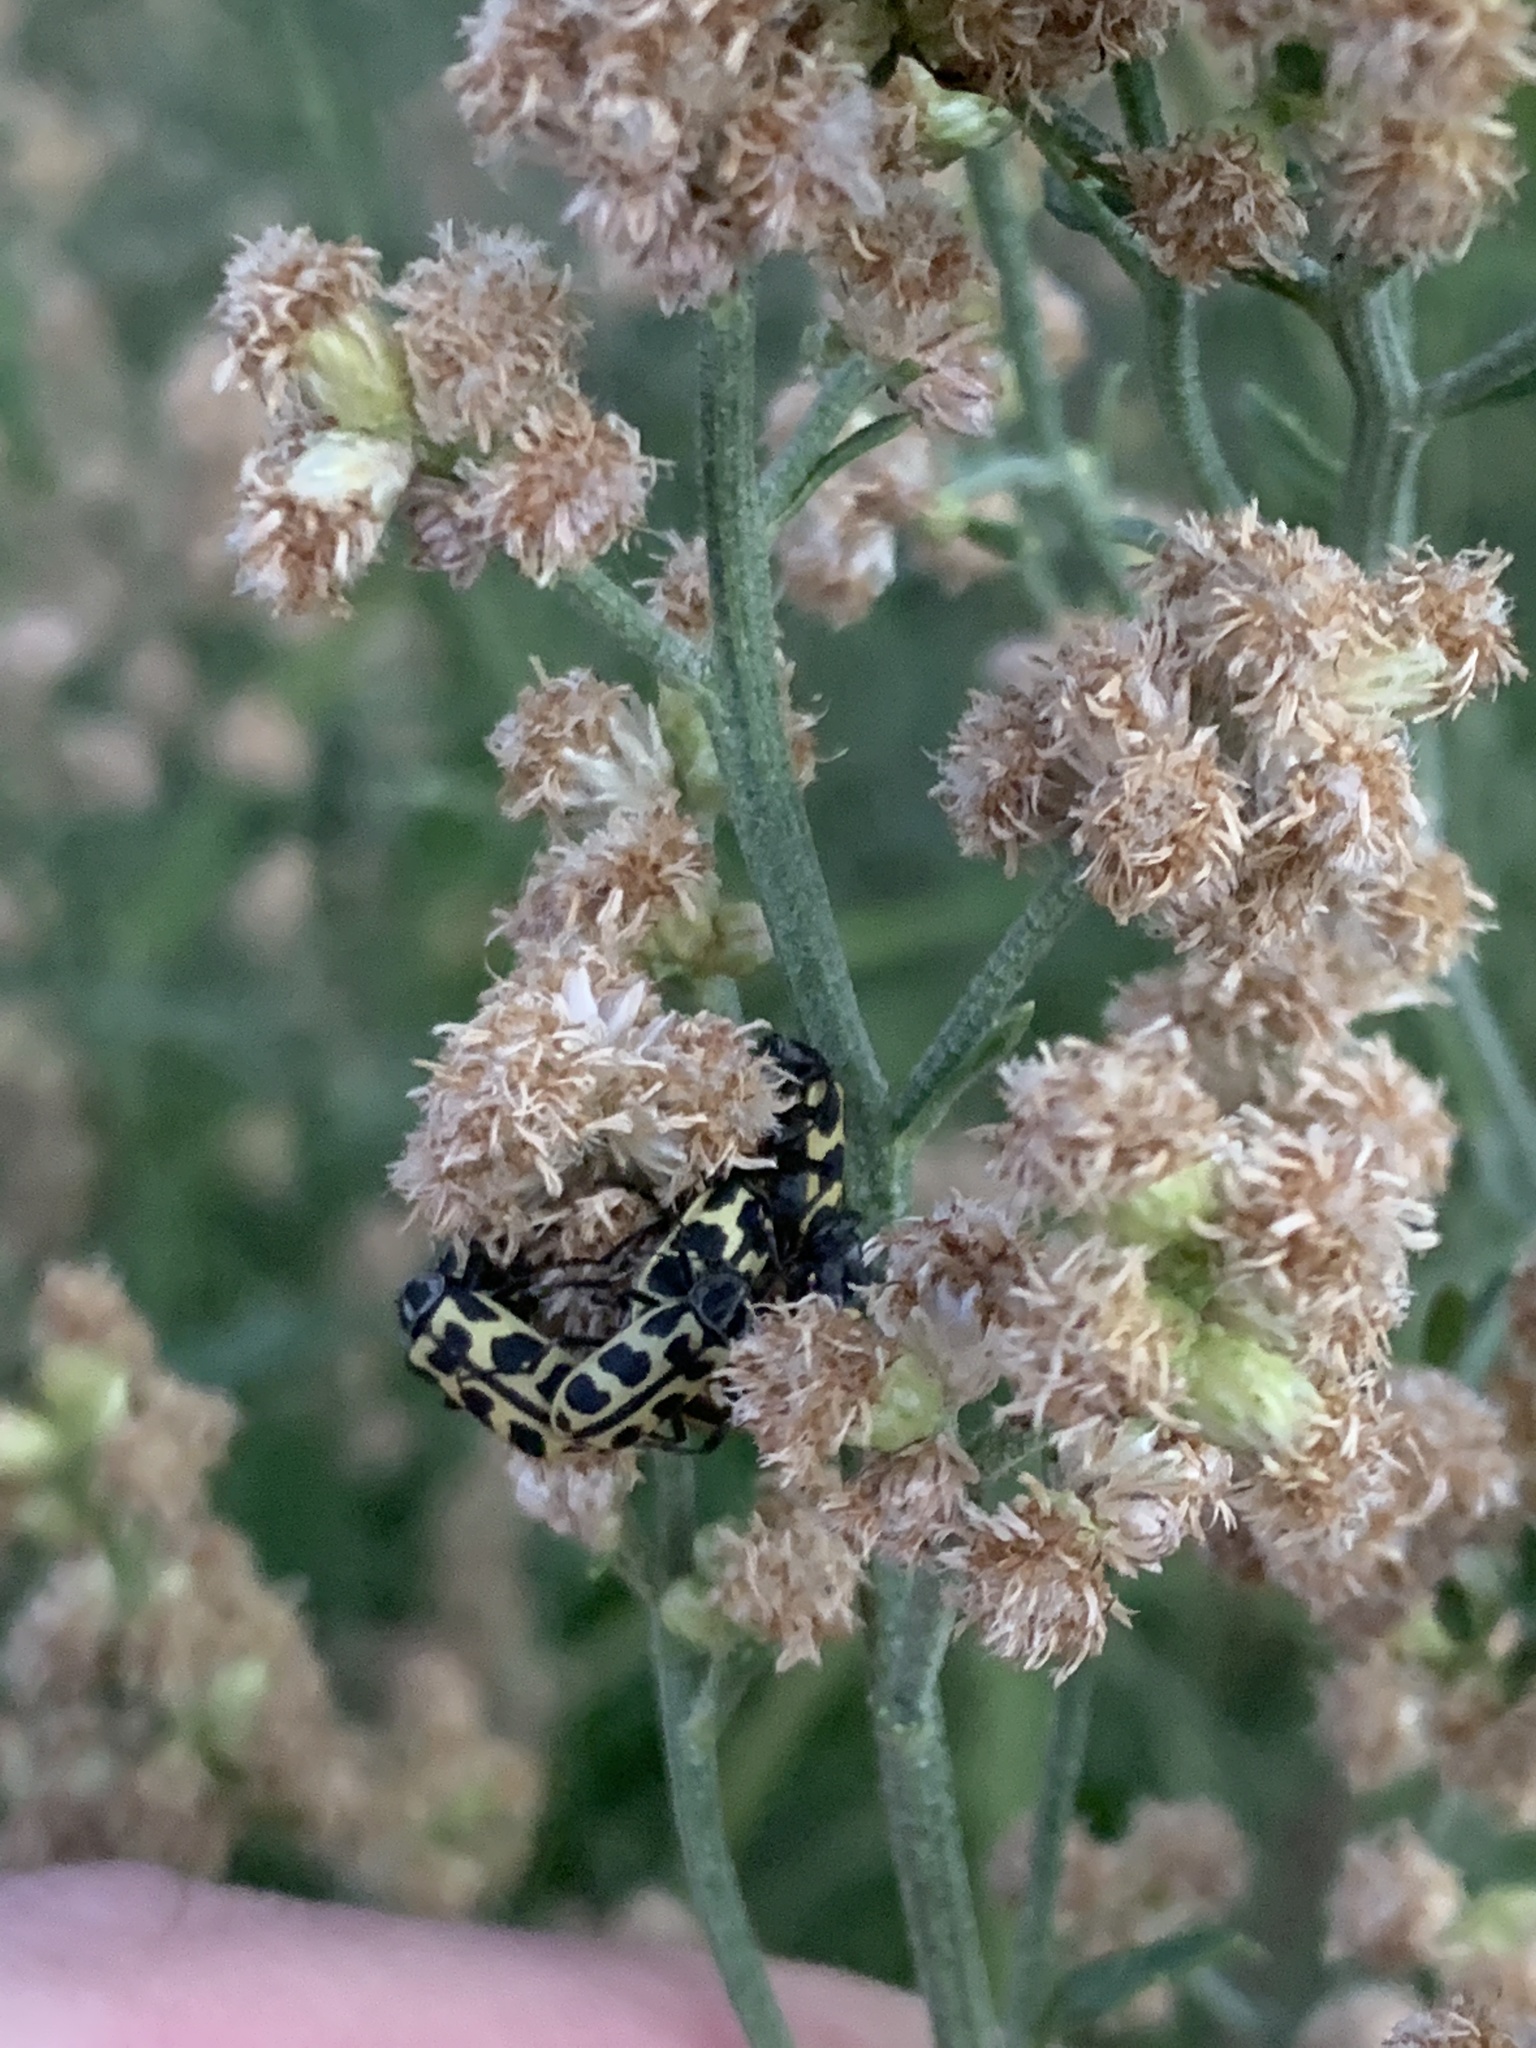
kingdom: Animalia
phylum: Arthropoda
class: Insecta
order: Coleoptera
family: Melyridae
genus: Astylus
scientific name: Astylus atromaculatus
